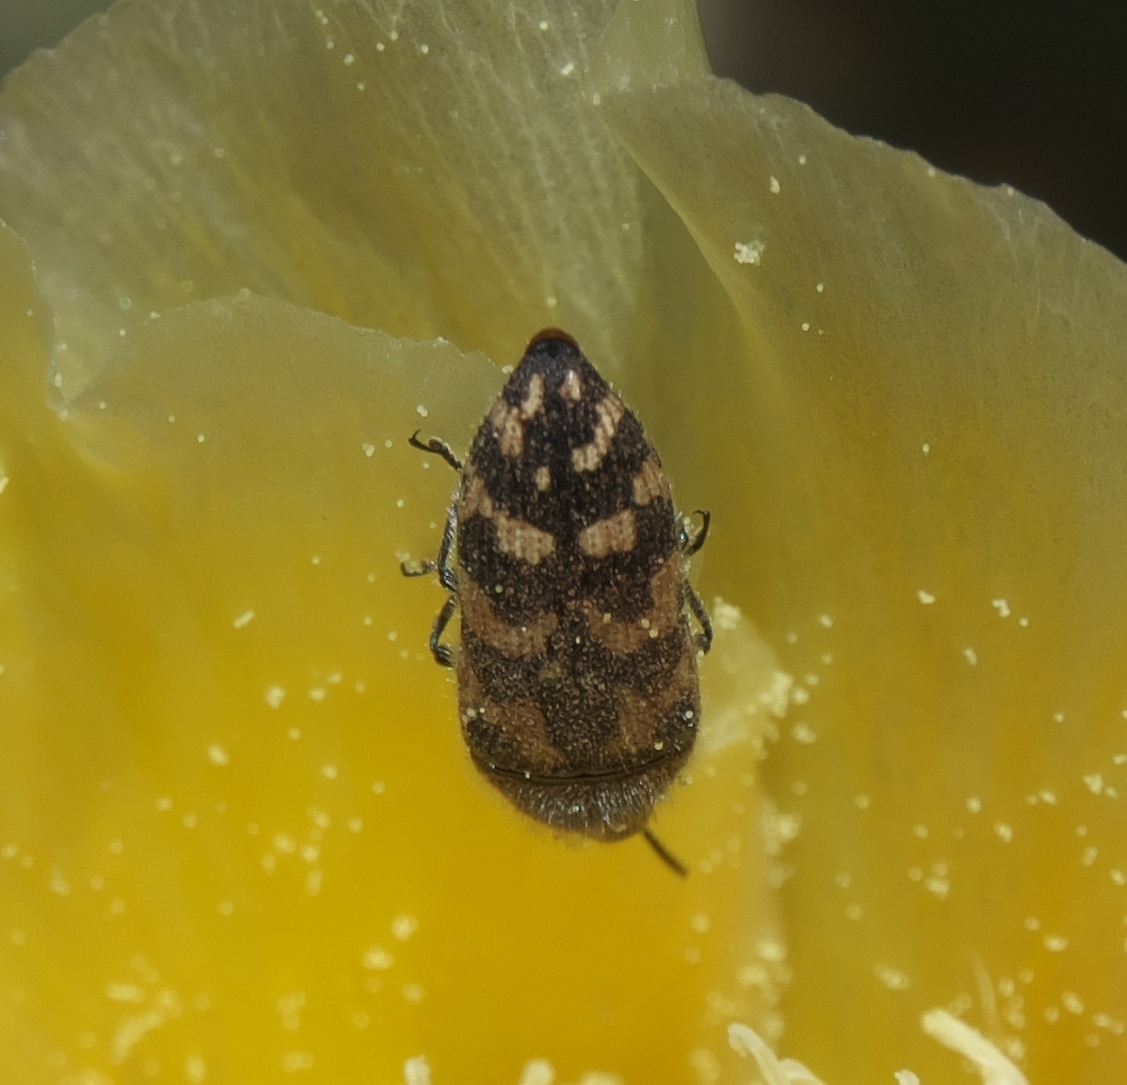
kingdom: Animalia
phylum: Arthropoda
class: Insecta
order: Coleoptera
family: Buprestidae
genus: Acmaeodera
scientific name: Acmaeodera mixta
